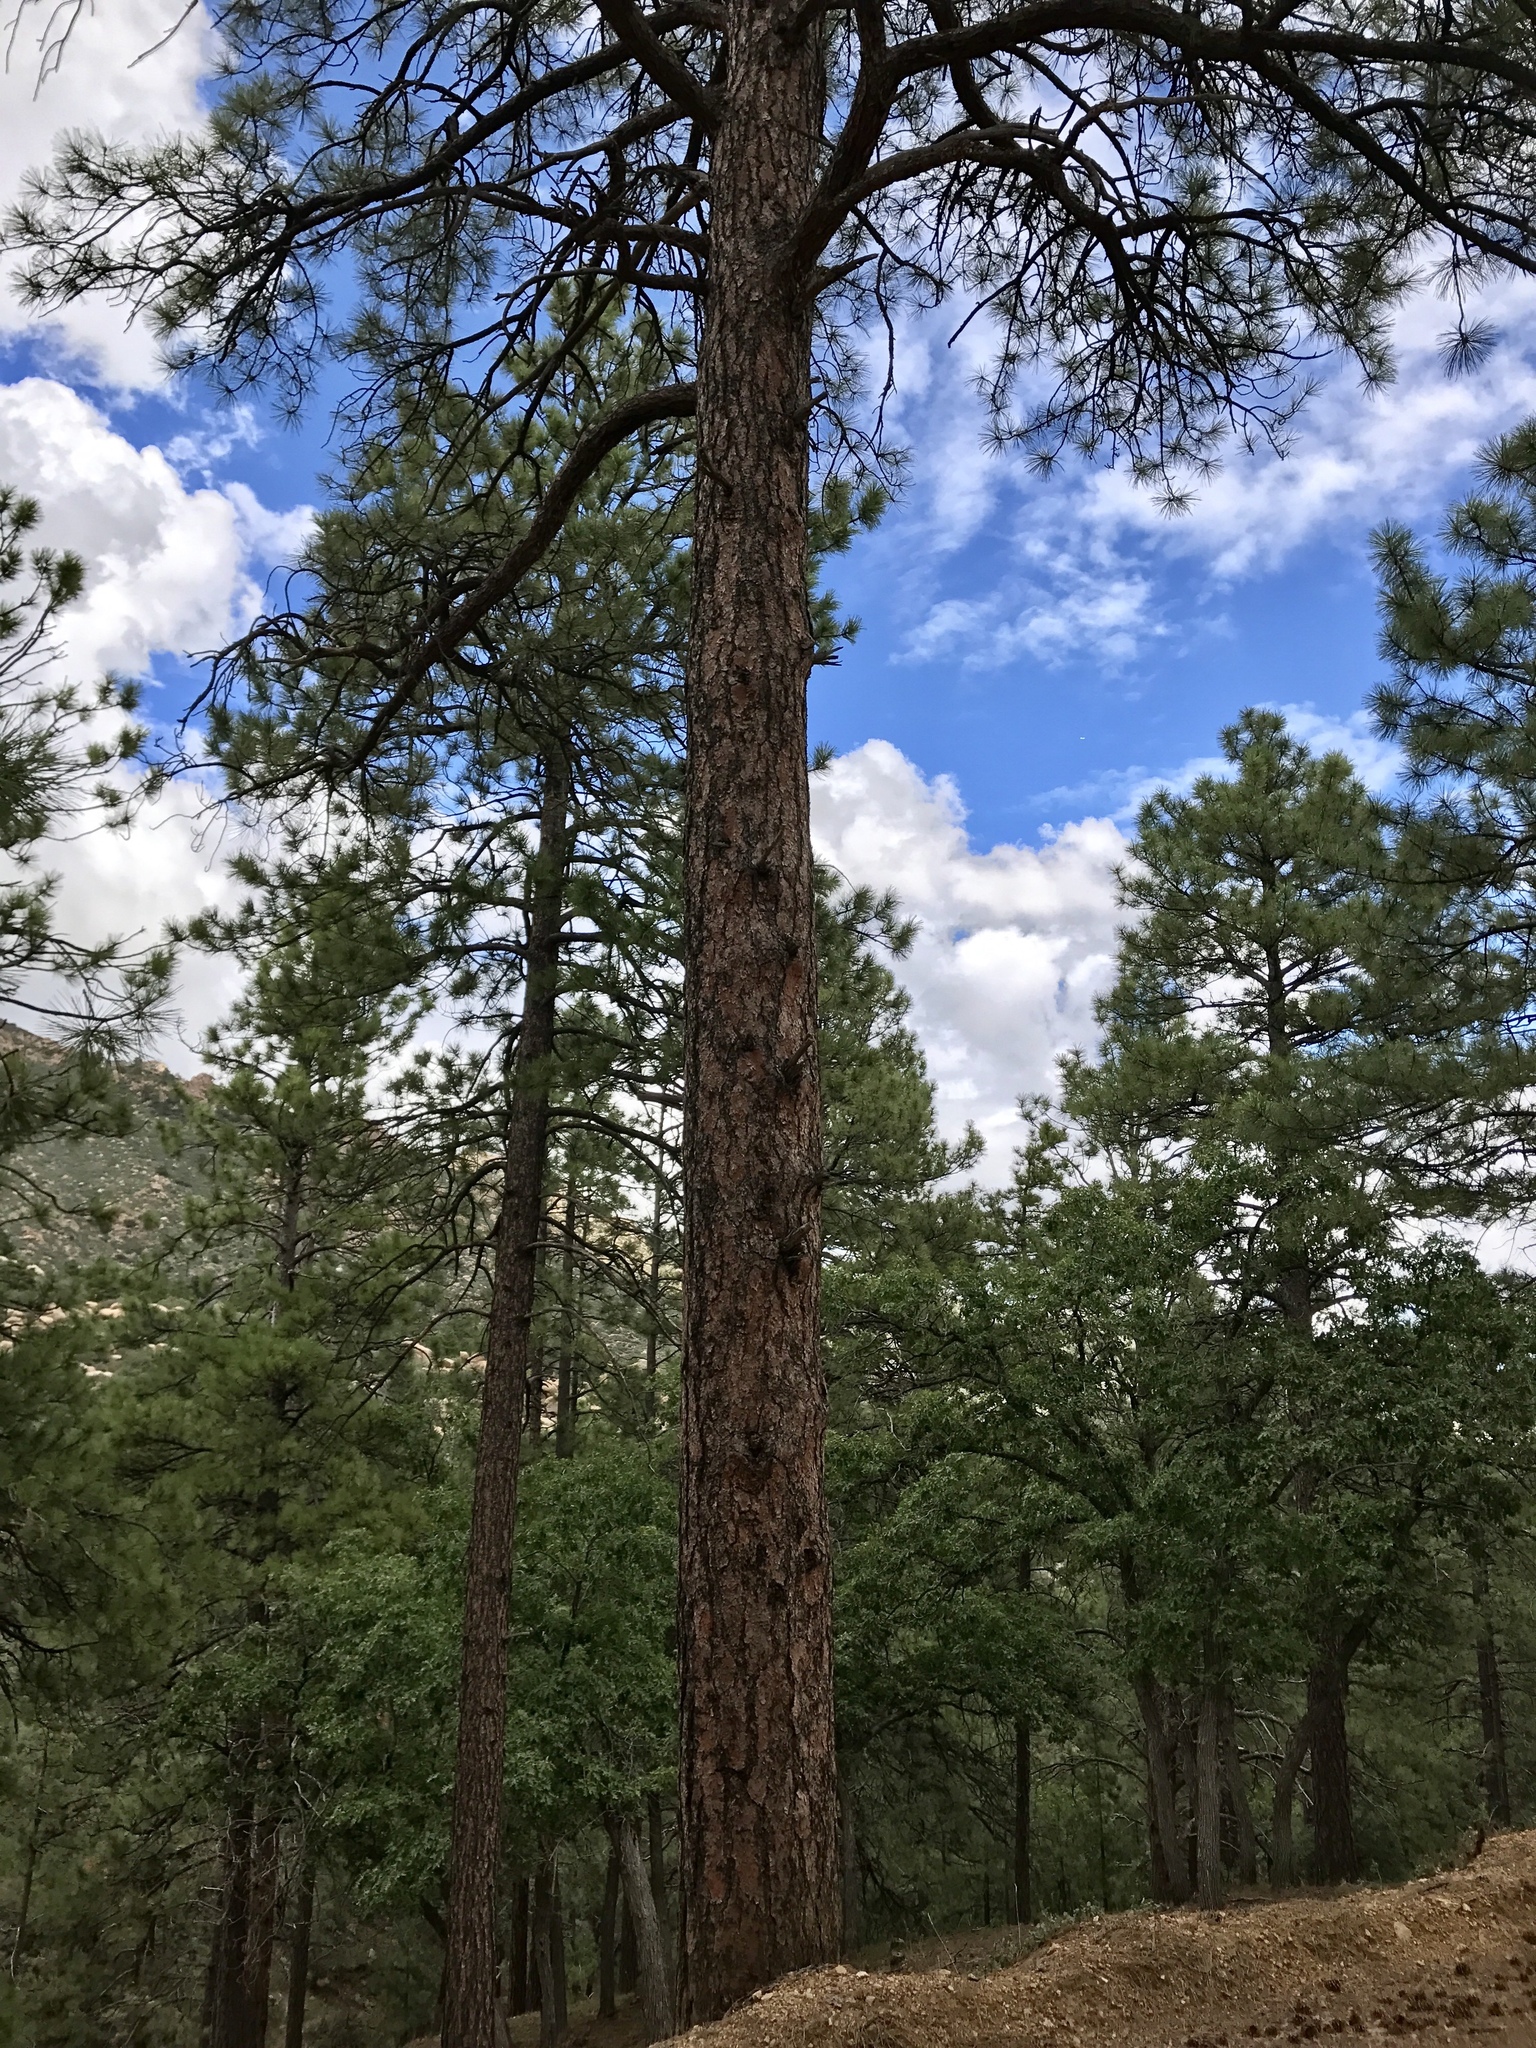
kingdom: Plantae
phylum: Tracheophyta
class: Pinopsida
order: Pinales
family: Pinaceae
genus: Pinus
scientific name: Pinus ponderosa
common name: Western yellow-pine
